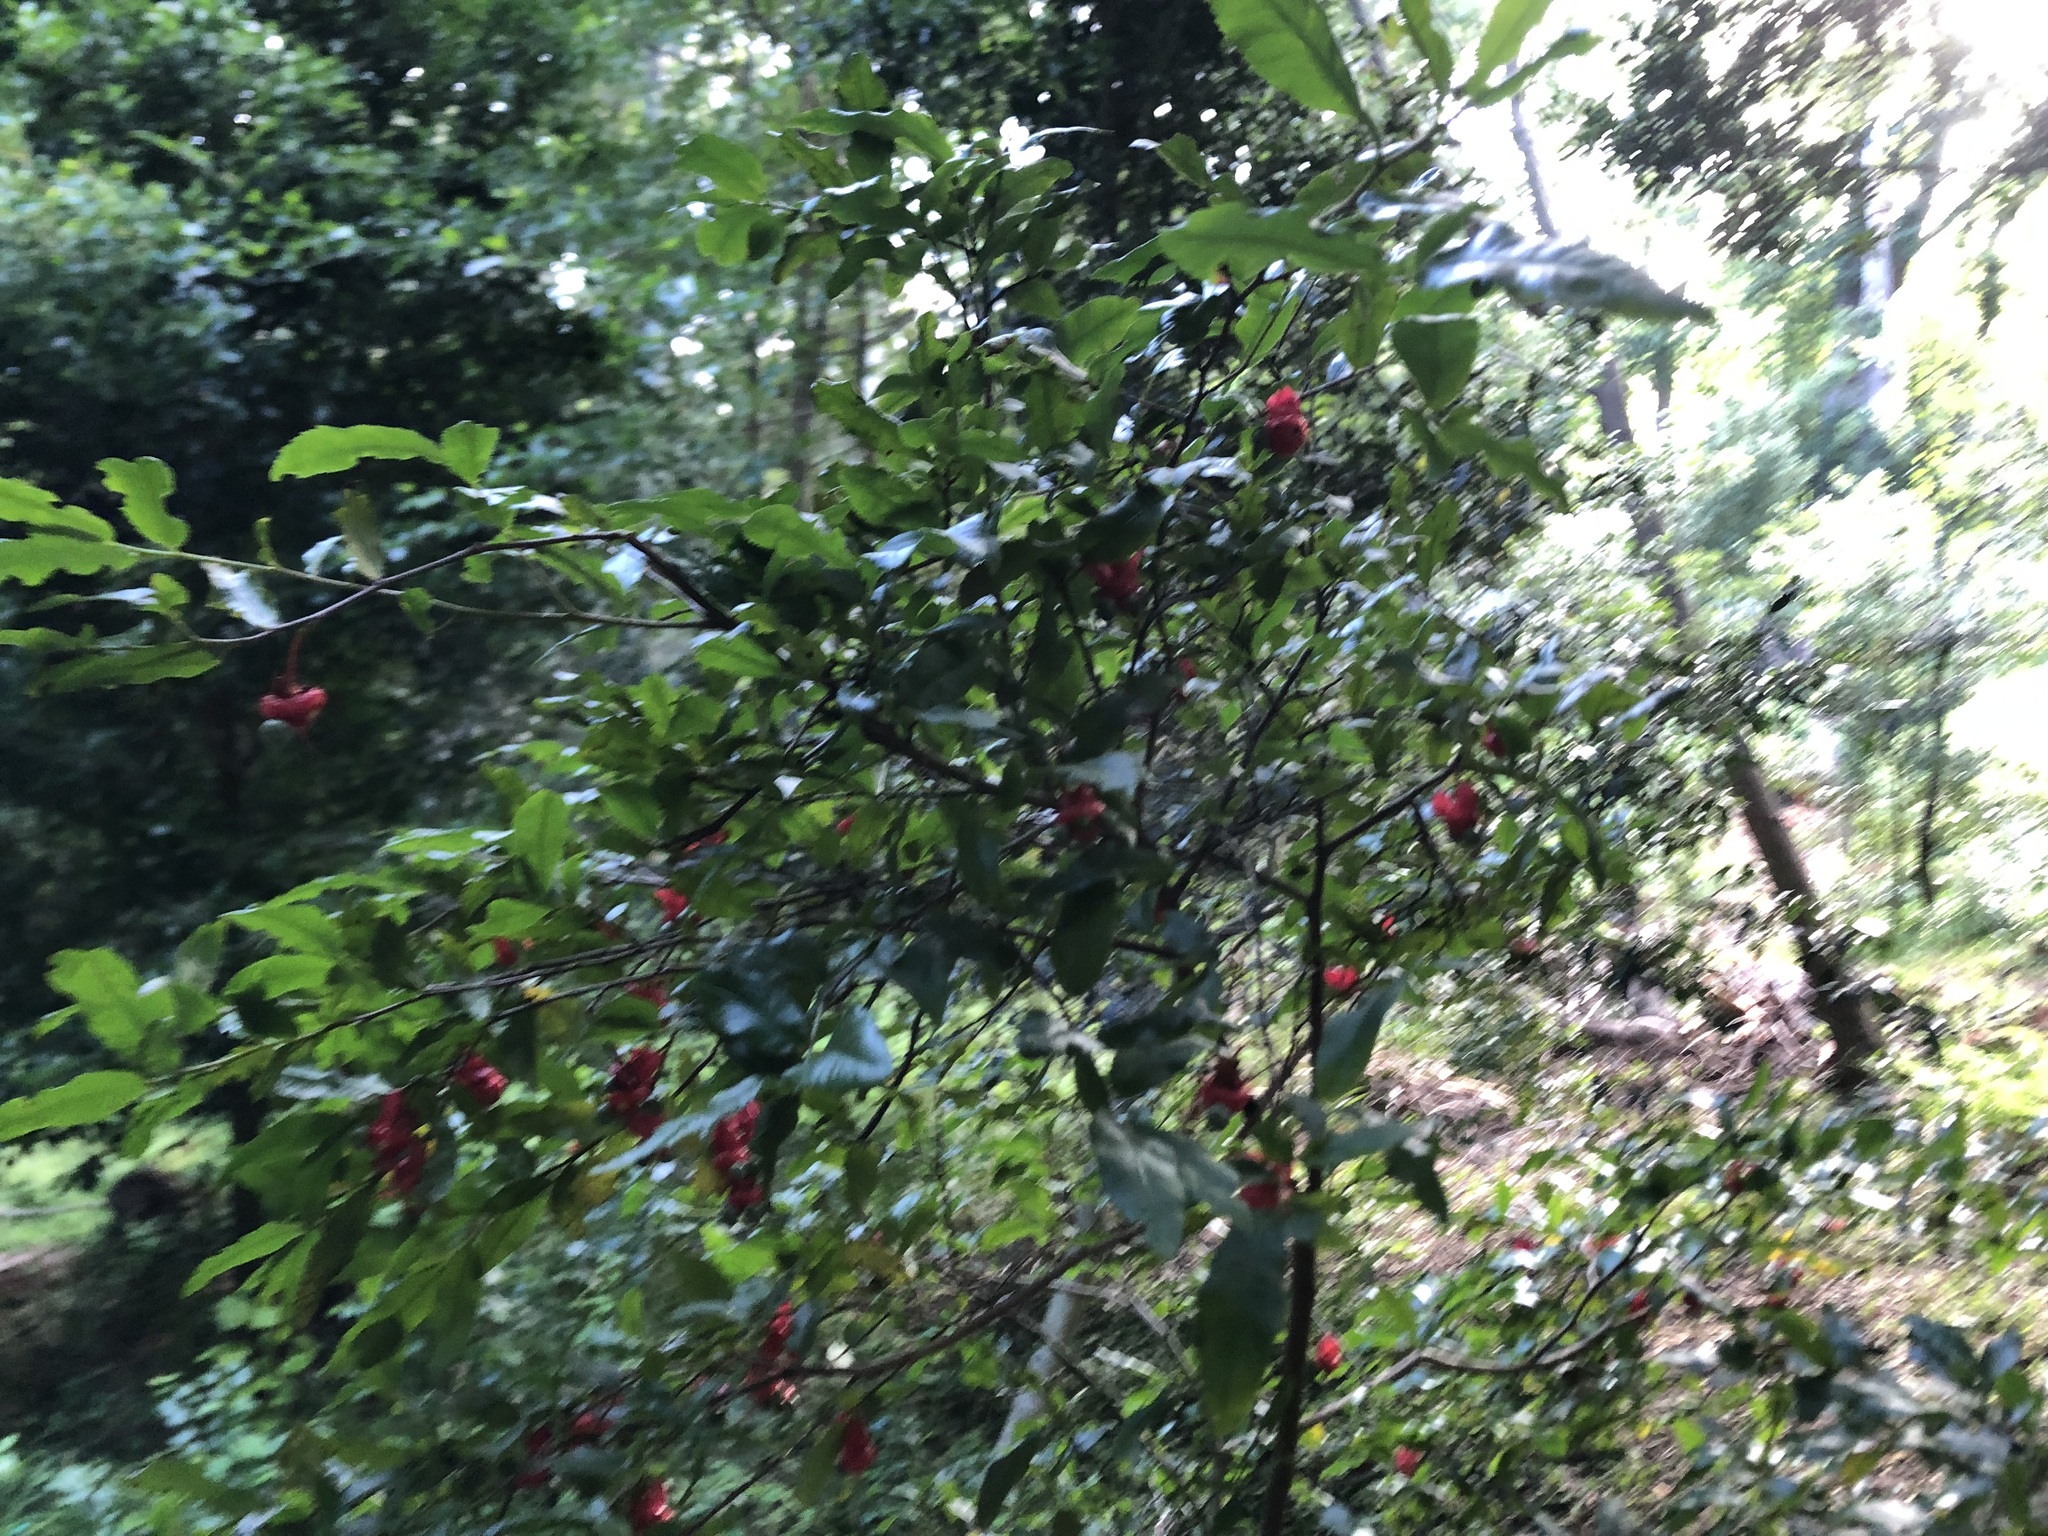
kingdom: Plantae
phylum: Tracheophyta
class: Magnoliopsida
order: Malpighiales
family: Ochnaceae
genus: Ochna
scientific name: Ochna serrulata
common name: Mickey mouse plant
